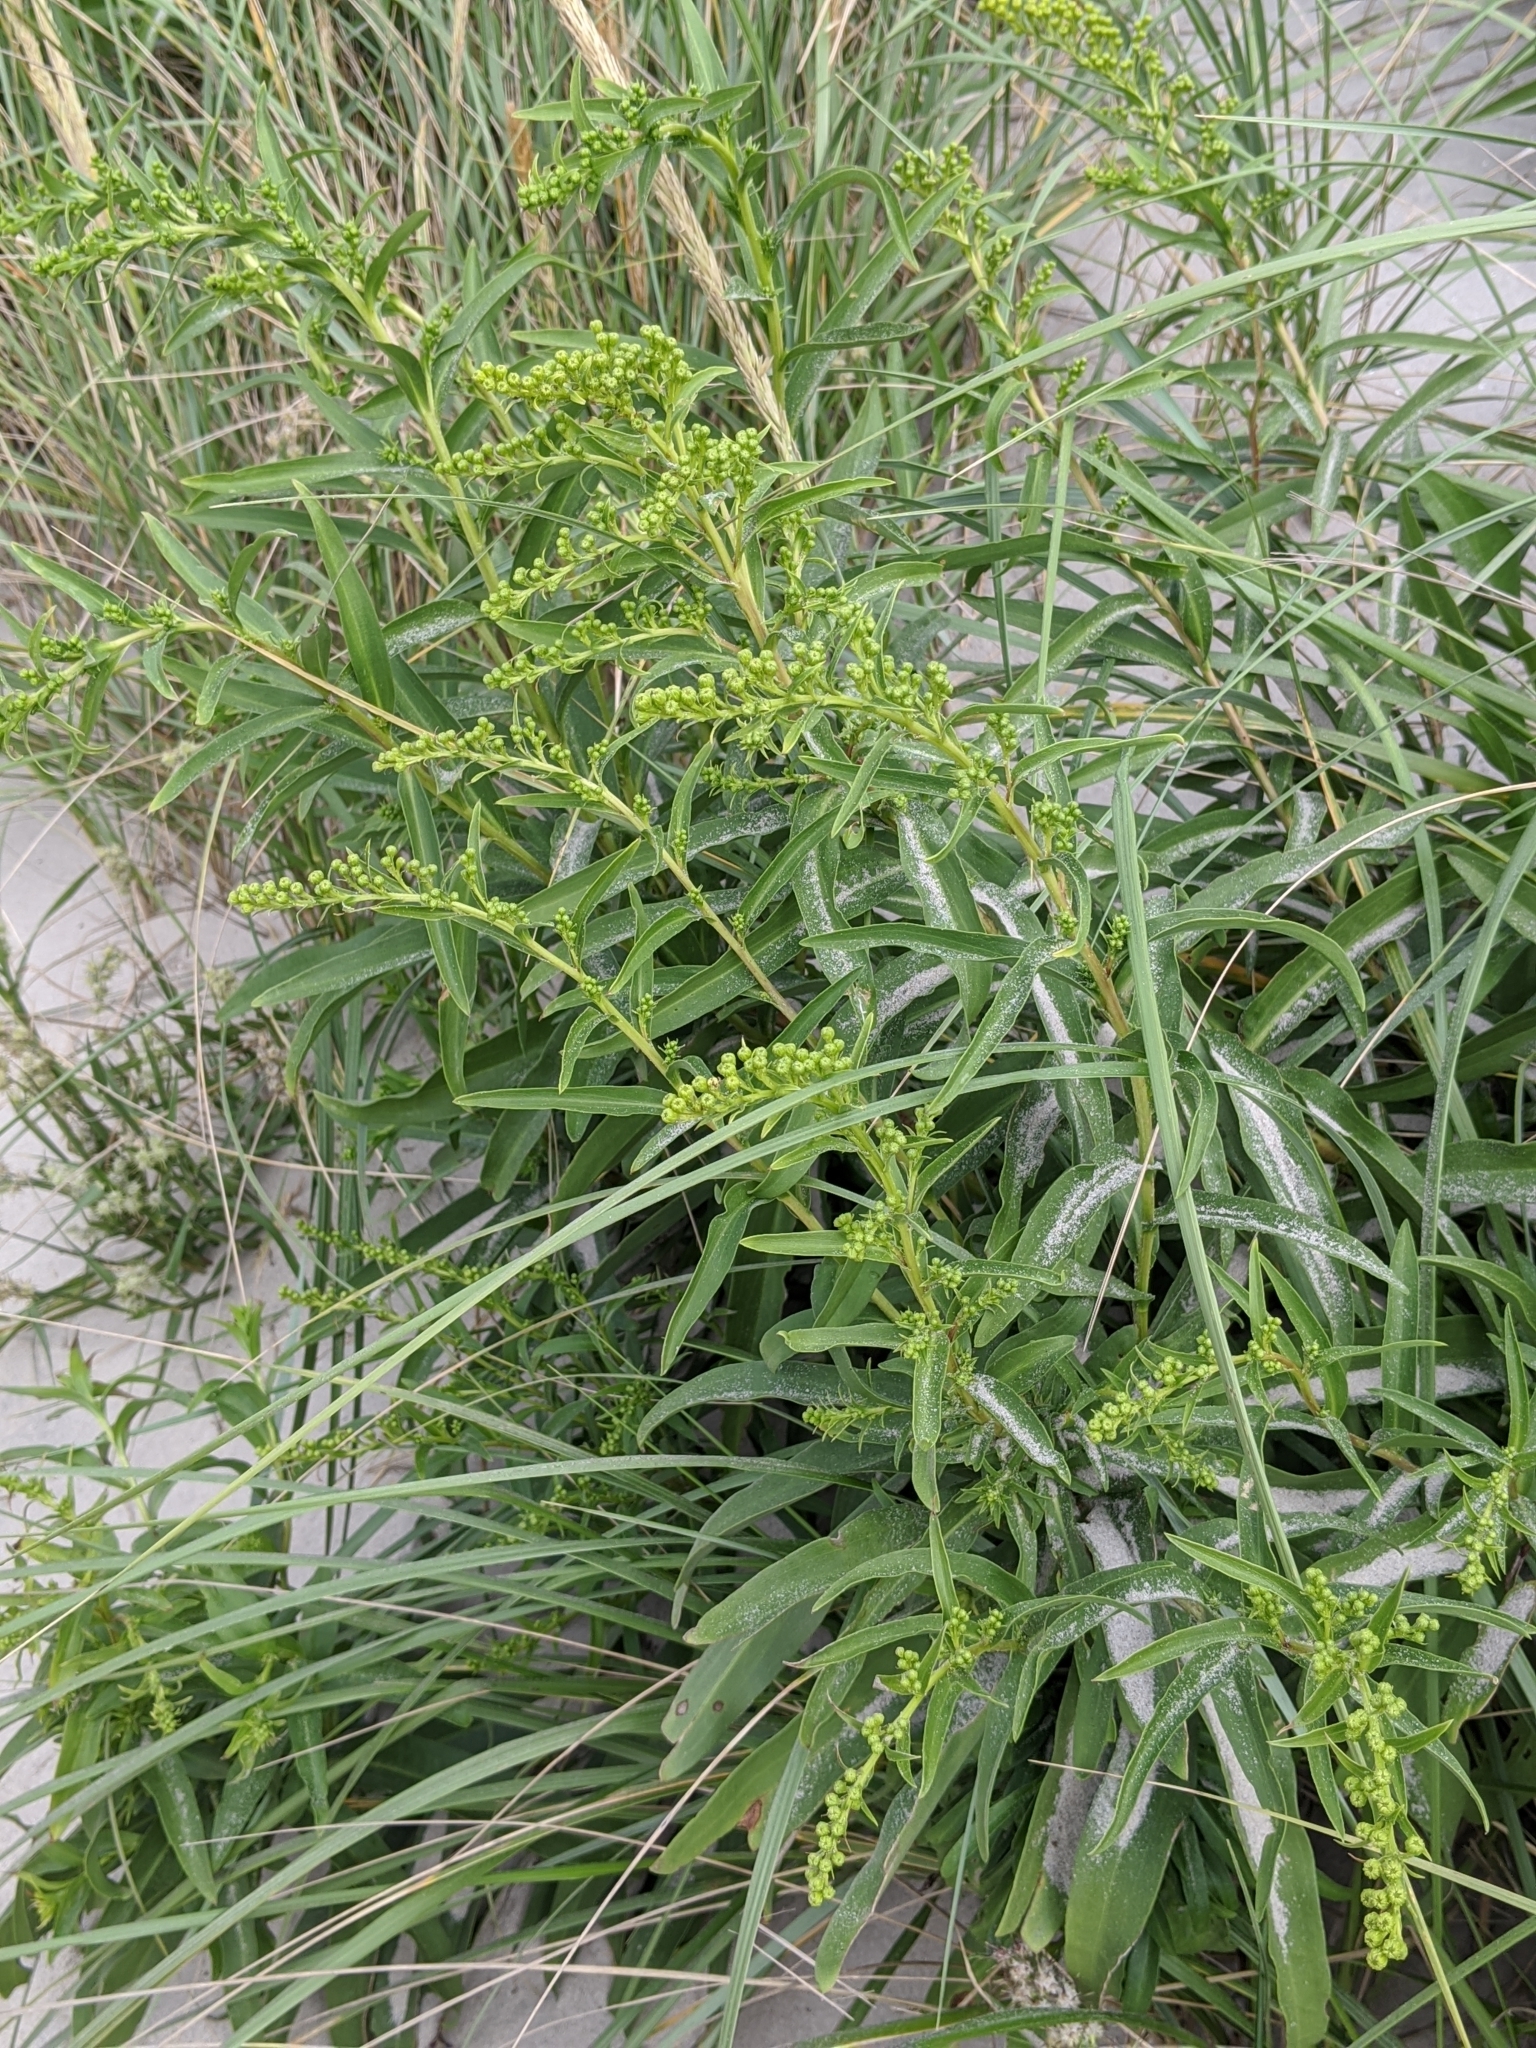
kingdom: Plantae
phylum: Tracheophyta
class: Magnoliopsida
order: Asterales
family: Asteraceae
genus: Solidago
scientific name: Solidago sempervirens
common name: Salt-marsh goldenrod
